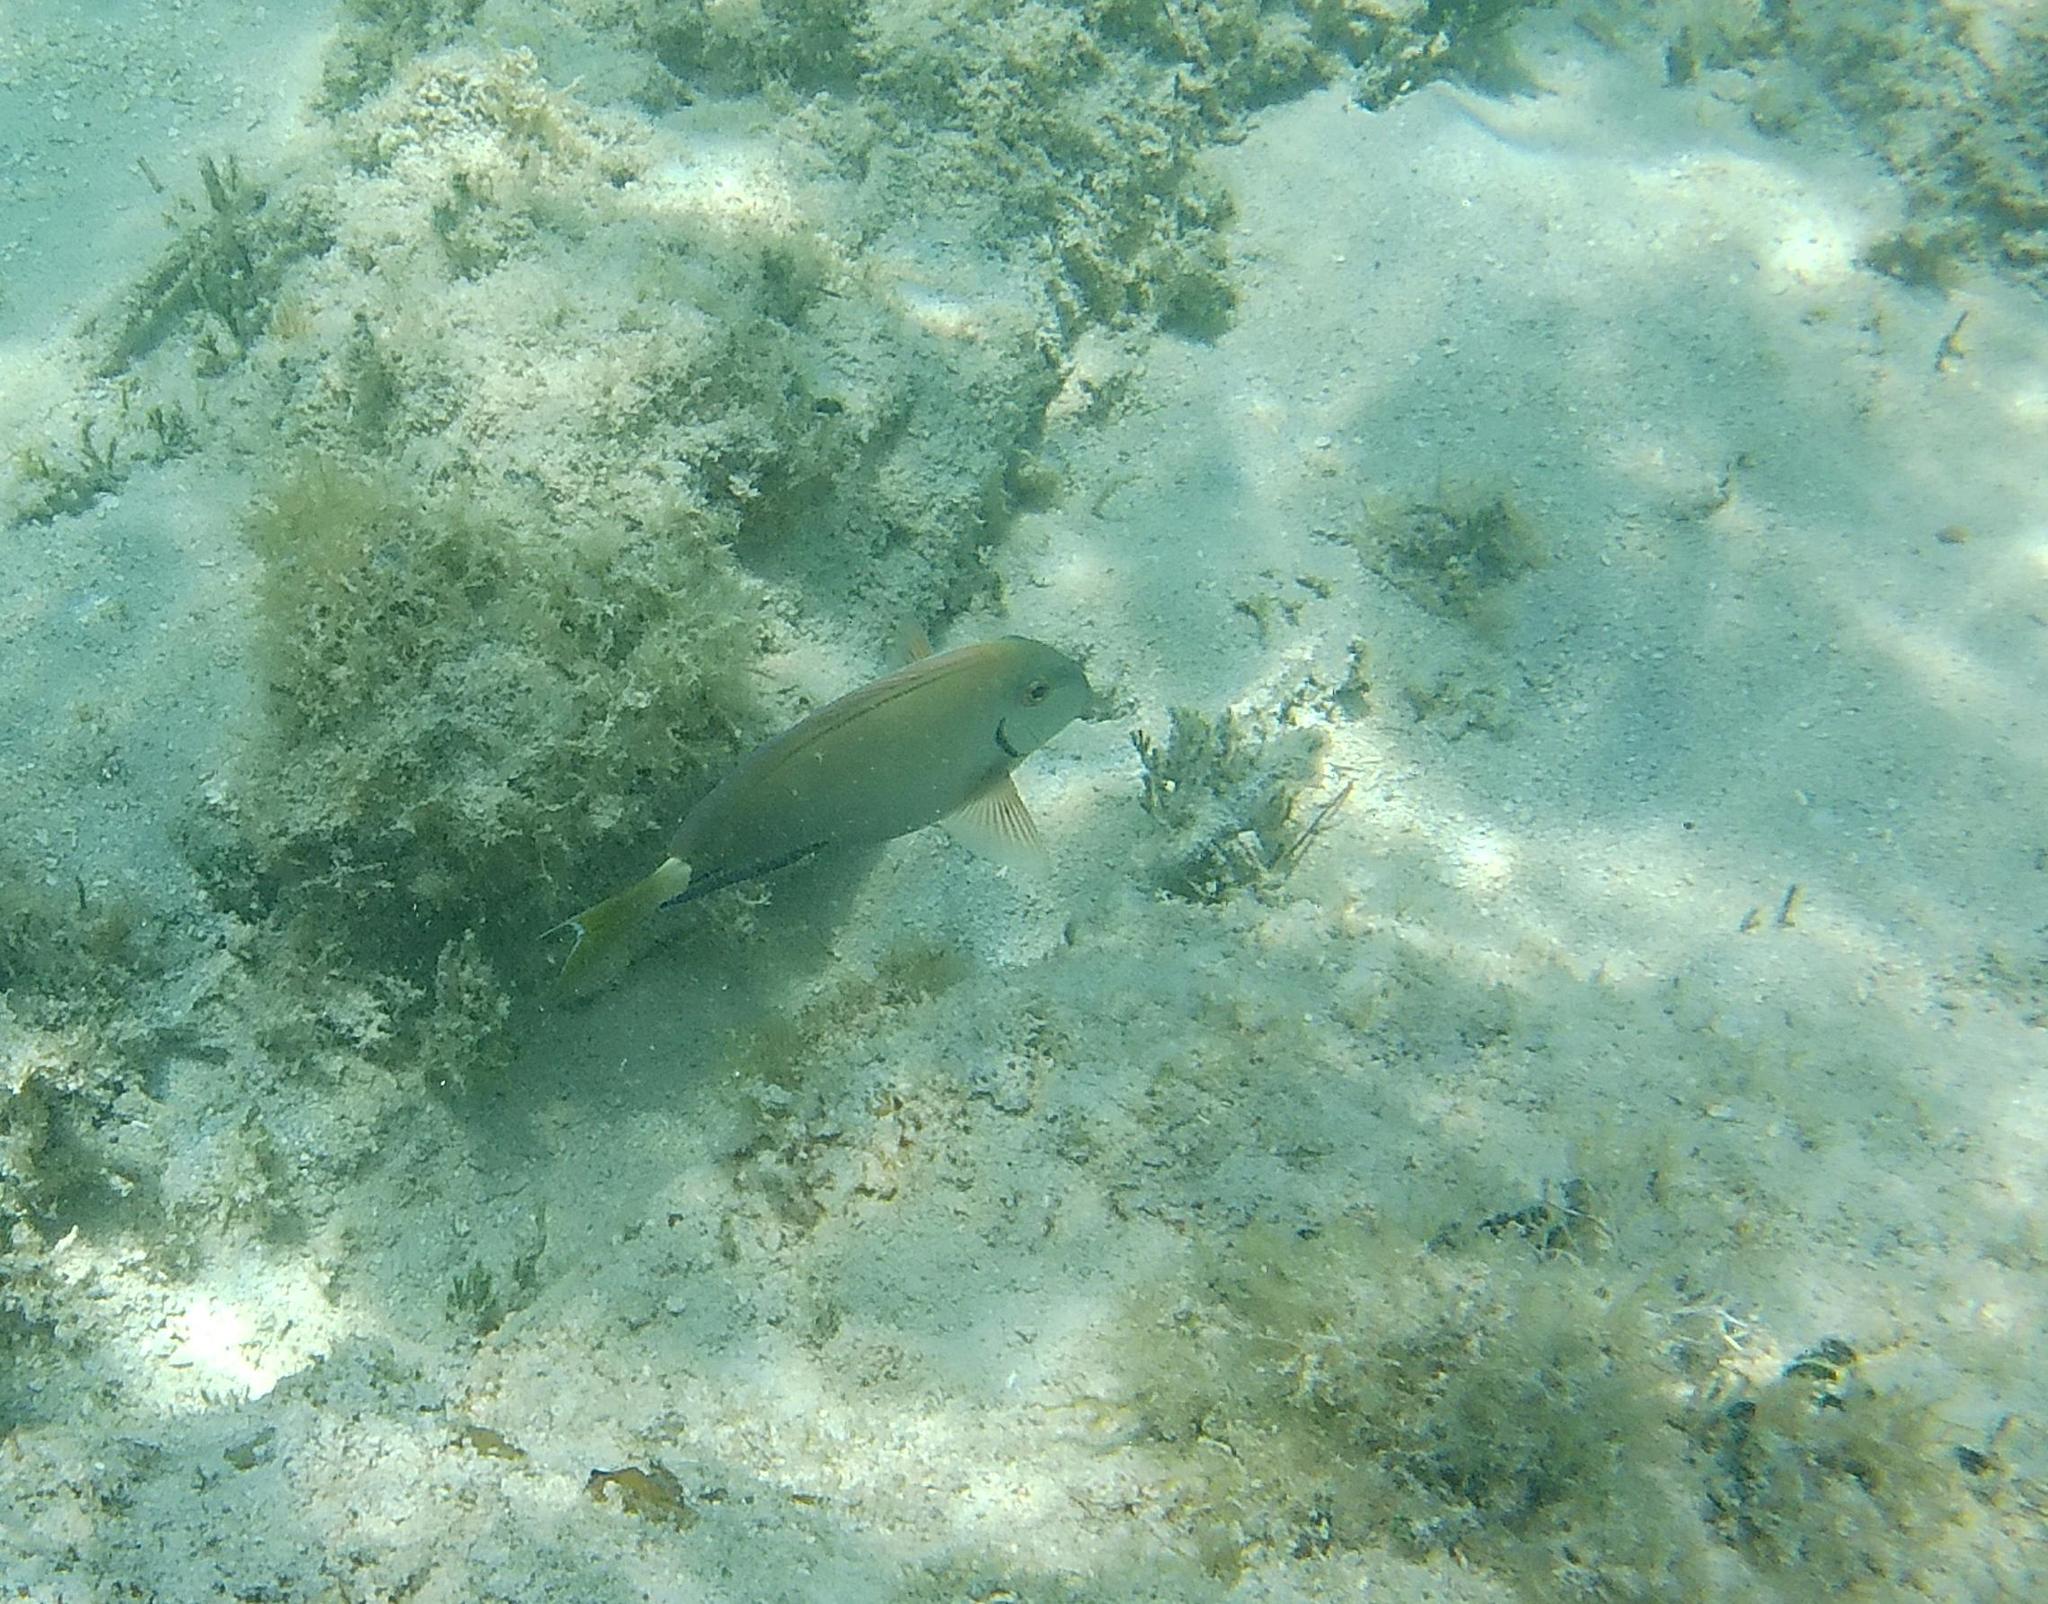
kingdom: Animalia
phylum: Chordata
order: Perciformes
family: Acanthuridae
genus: Acanthurus
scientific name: Acanthurus bahianus
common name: Ocean surgeon
